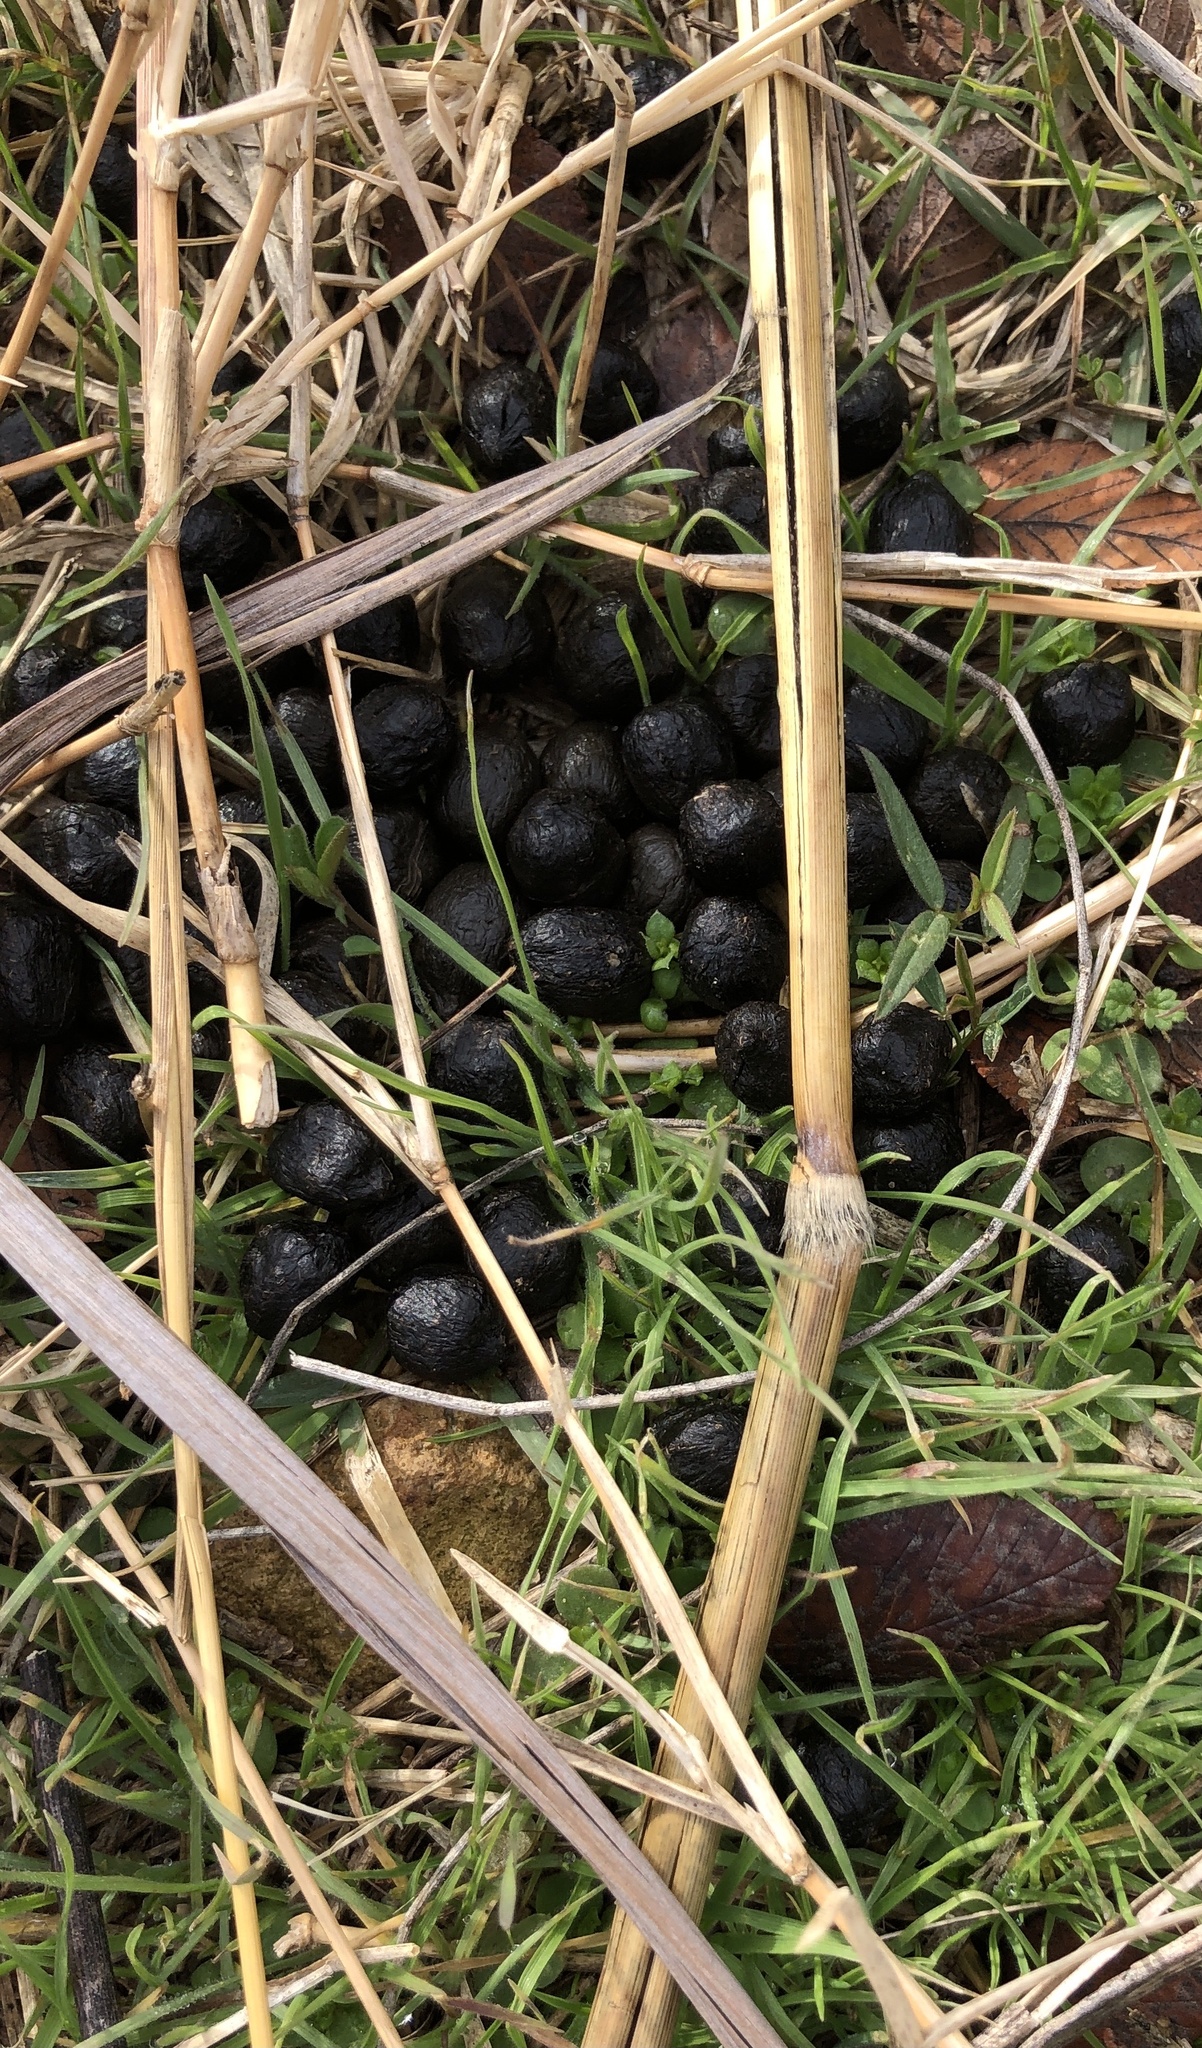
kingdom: Animalia
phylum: Chordata
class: Mammalia
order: Lagomorpha
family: Leporidae
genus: Sylvilagus
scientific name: Sylvilagus floridanus
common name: Eastern cottontail
